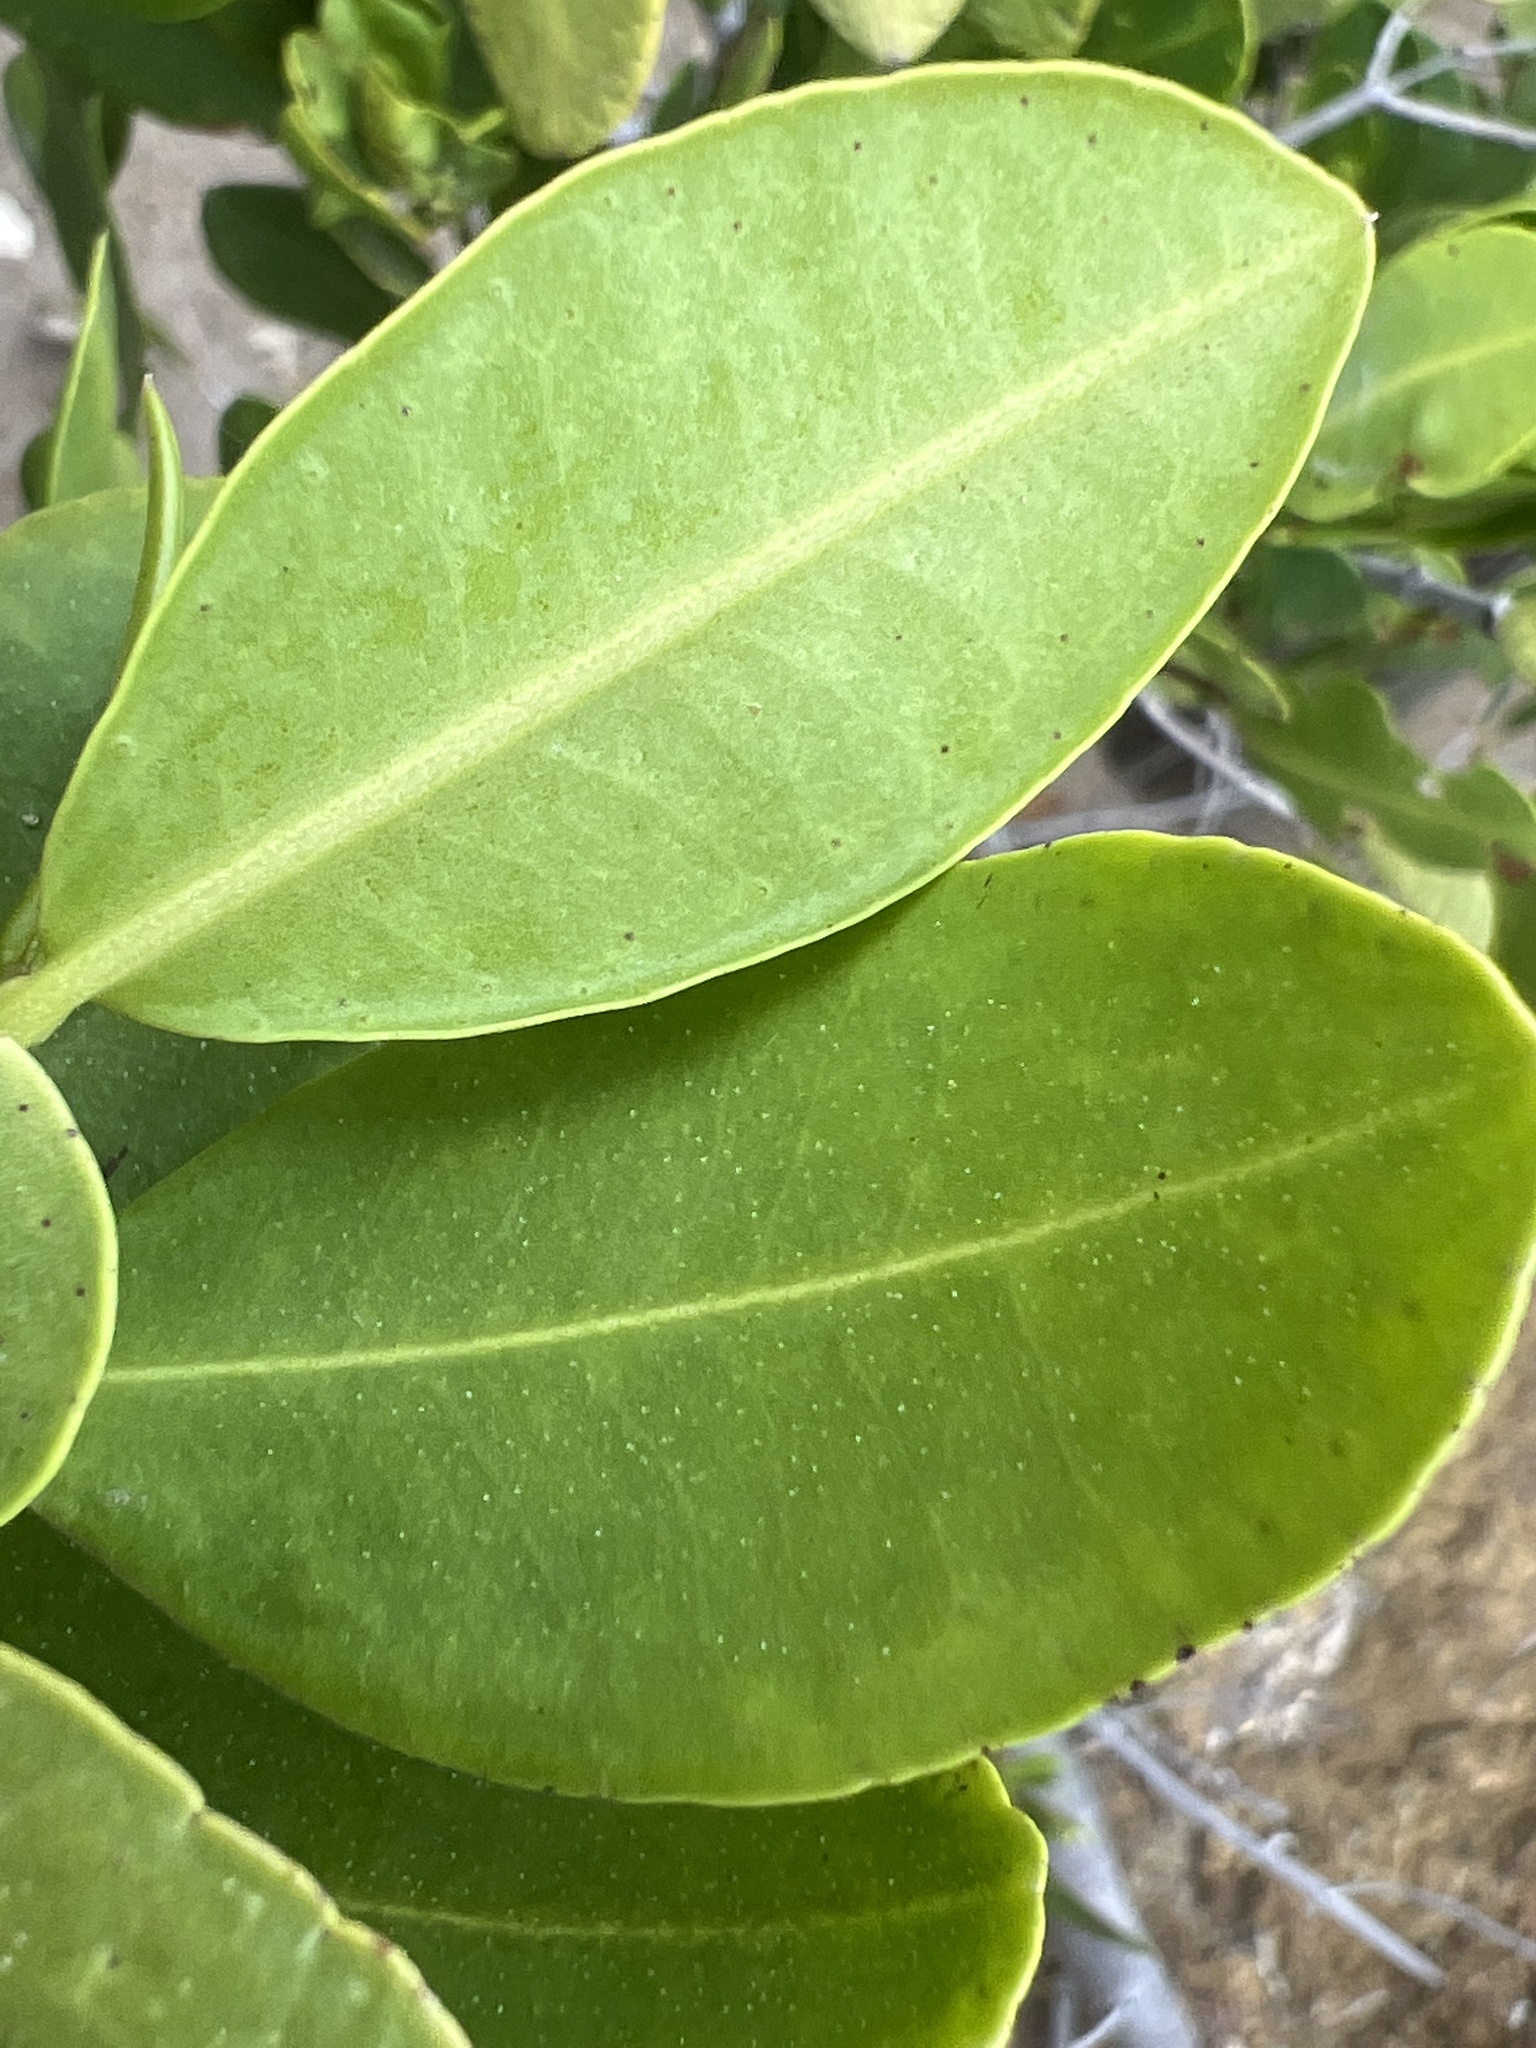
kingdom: Plantae
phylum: Tracheophyta
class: Magnoliopsida
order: Myrtales
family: Combretaceae
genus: Laguncularia
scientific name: Laguncularia racemosa
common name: White mangrove
